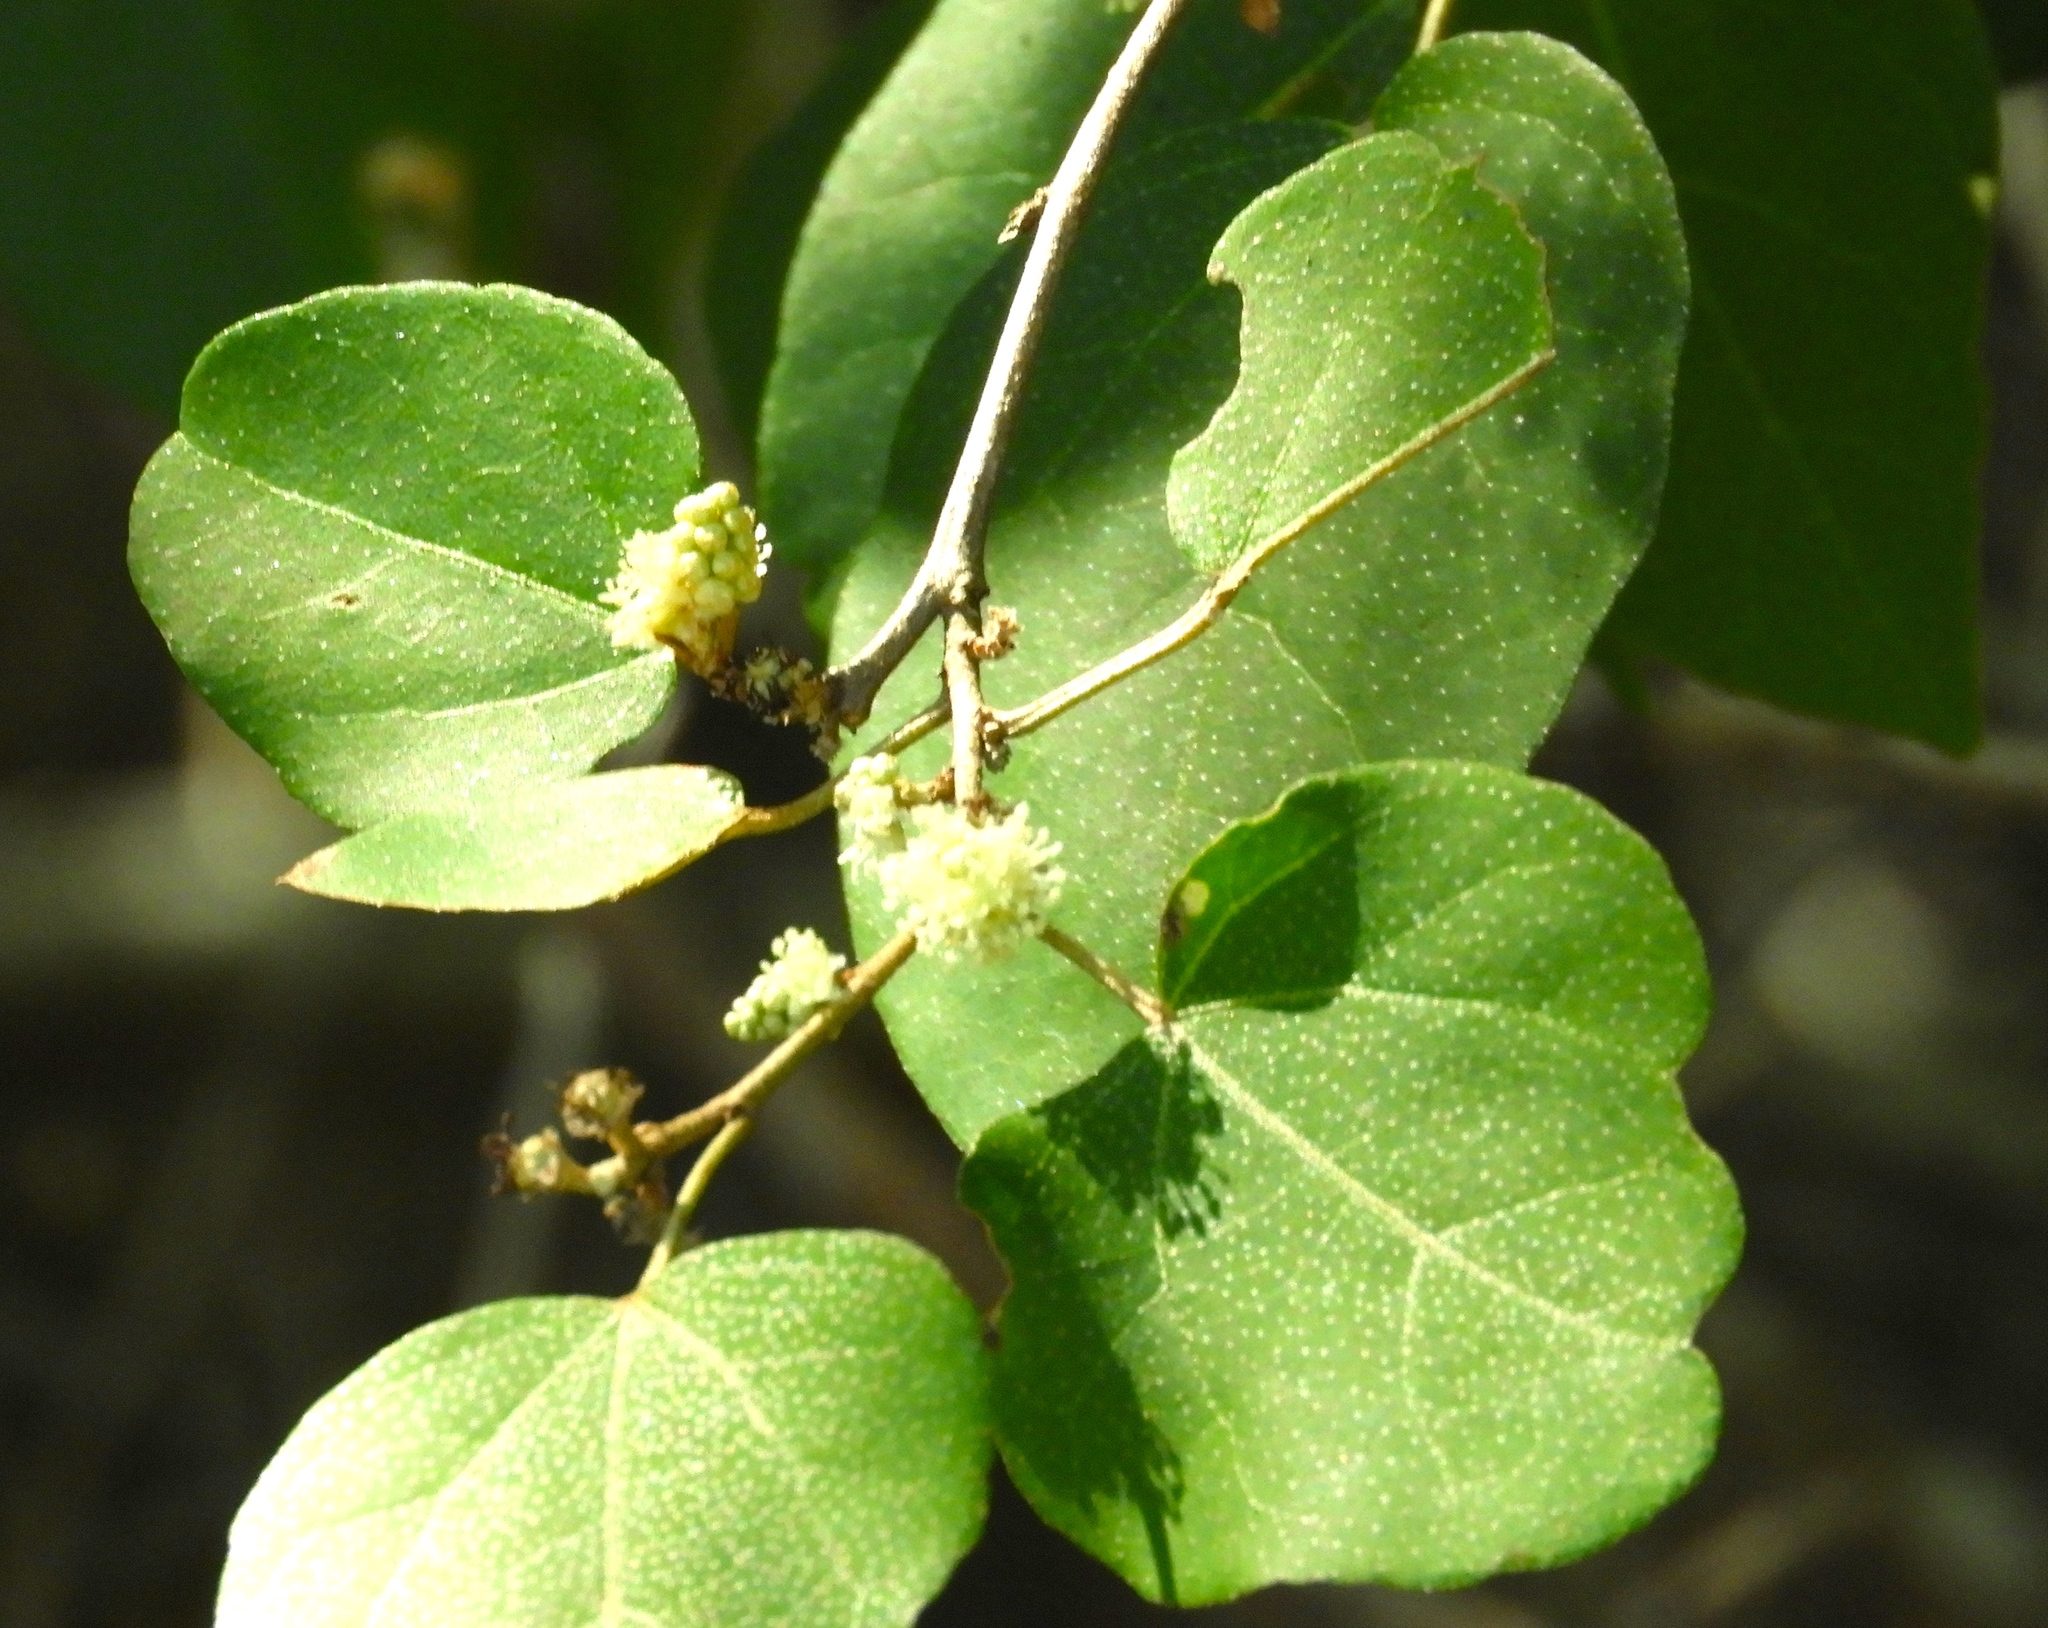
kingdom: Plantae
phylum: Tracheophyta
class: Magnoliopsida
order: Malpighiales
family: Euphorbiaceae
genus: Croton
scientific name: Croton pseudoniveus
